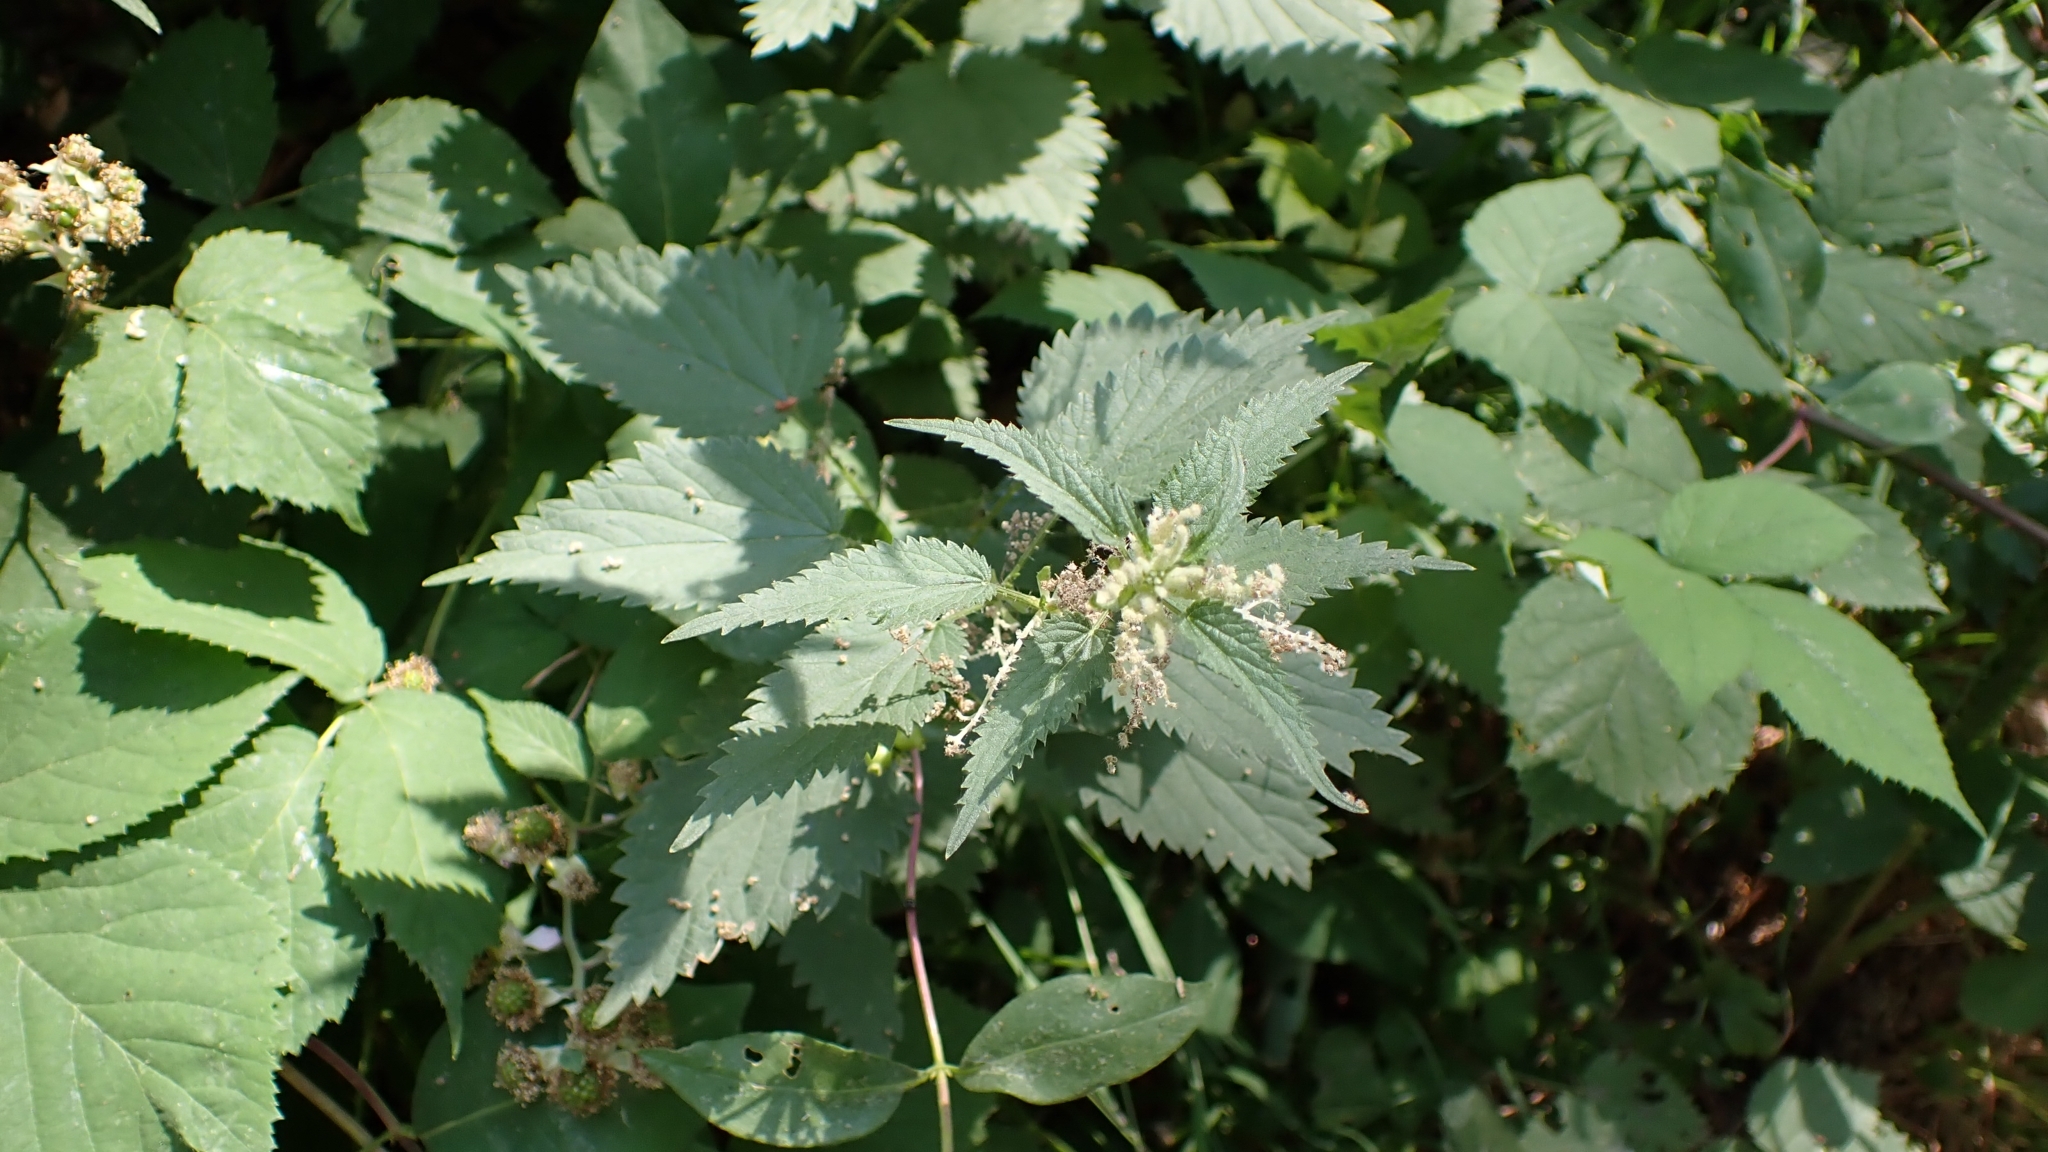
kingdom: Plantae
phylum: Tracheophyta
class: Magnoliopsida
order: Rosales
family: Urticaceae
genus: Urtica
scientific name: Urtica dioica
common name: Common nettle
